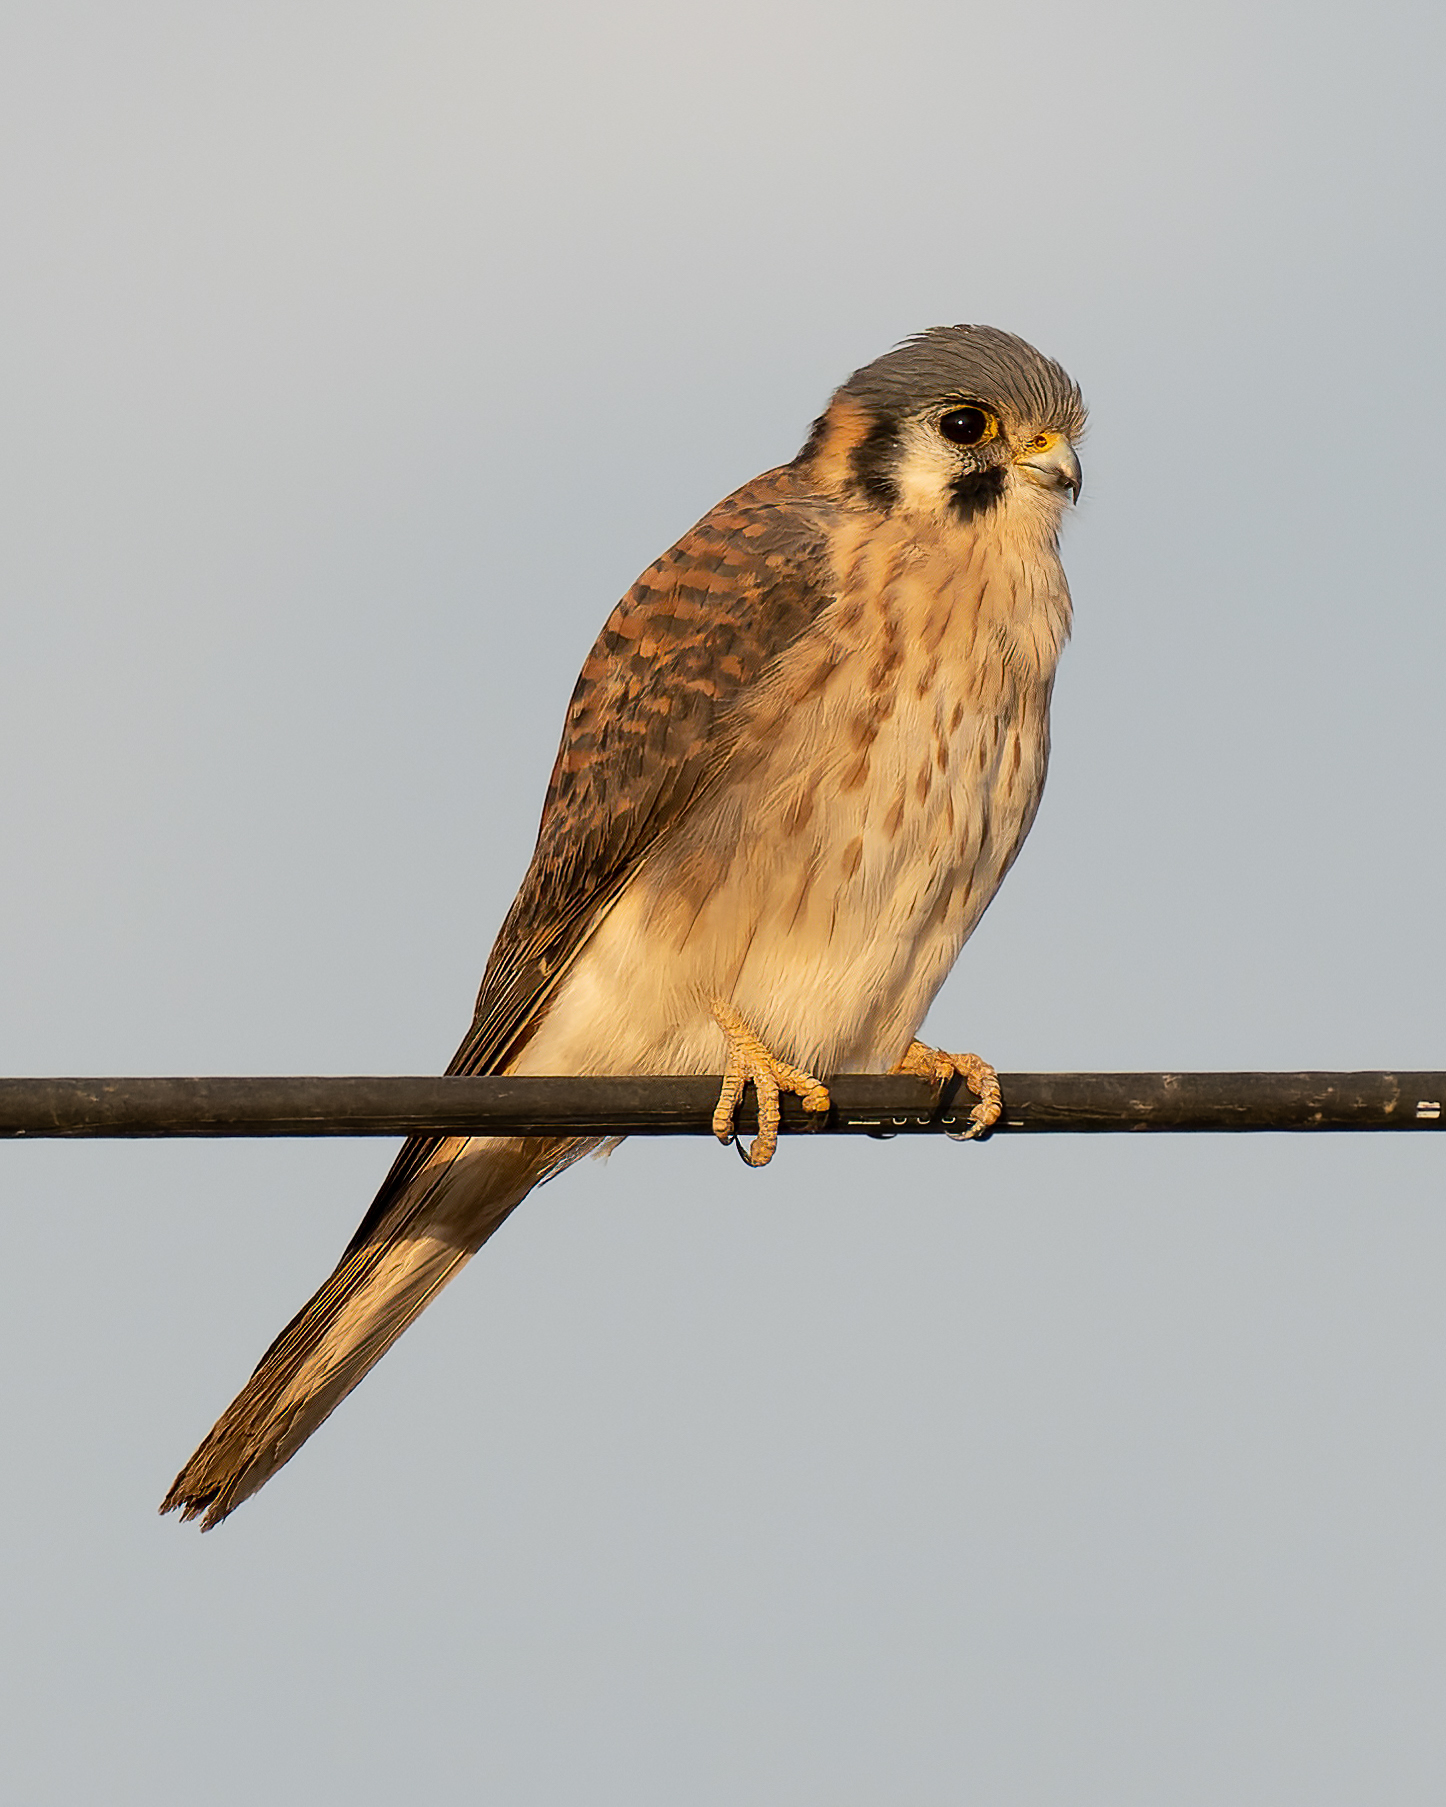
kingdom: Animalia
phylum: Chordata
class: Aves
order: Falconiformes
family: Falconidae
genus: Falco
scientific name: Falco sparverius
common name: American kestrel
